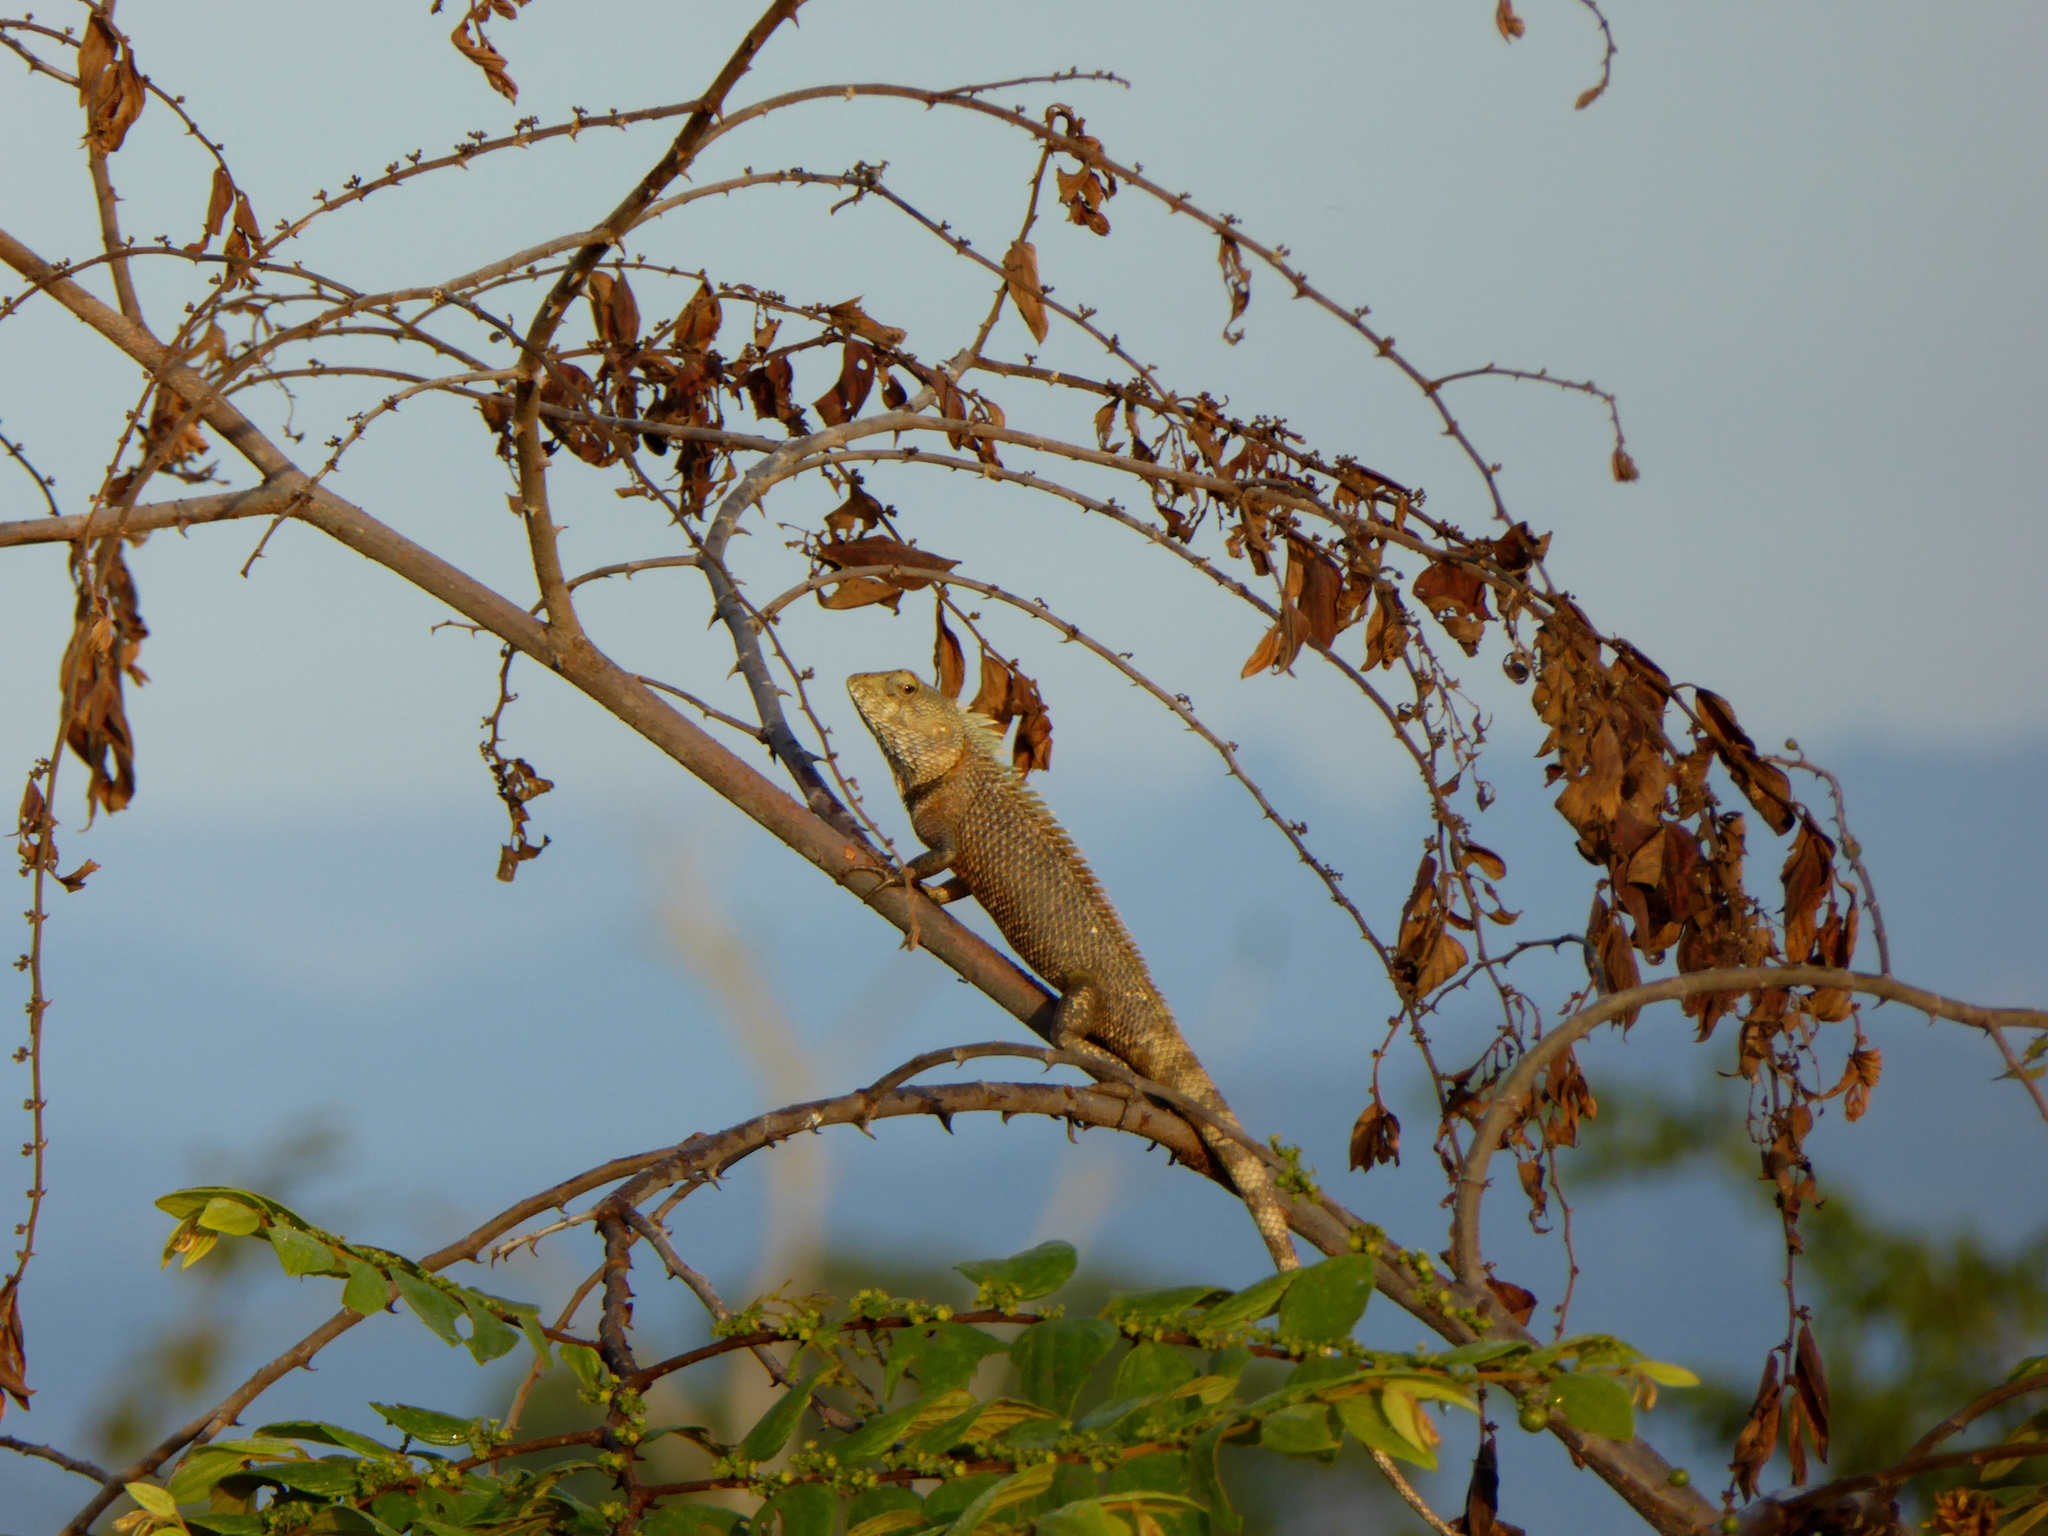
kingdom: Animalia
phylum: Chordata
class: Squamata
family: Agamidae
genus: Calotes
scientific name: Calotes versicolor
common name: Oriental garden lizard
